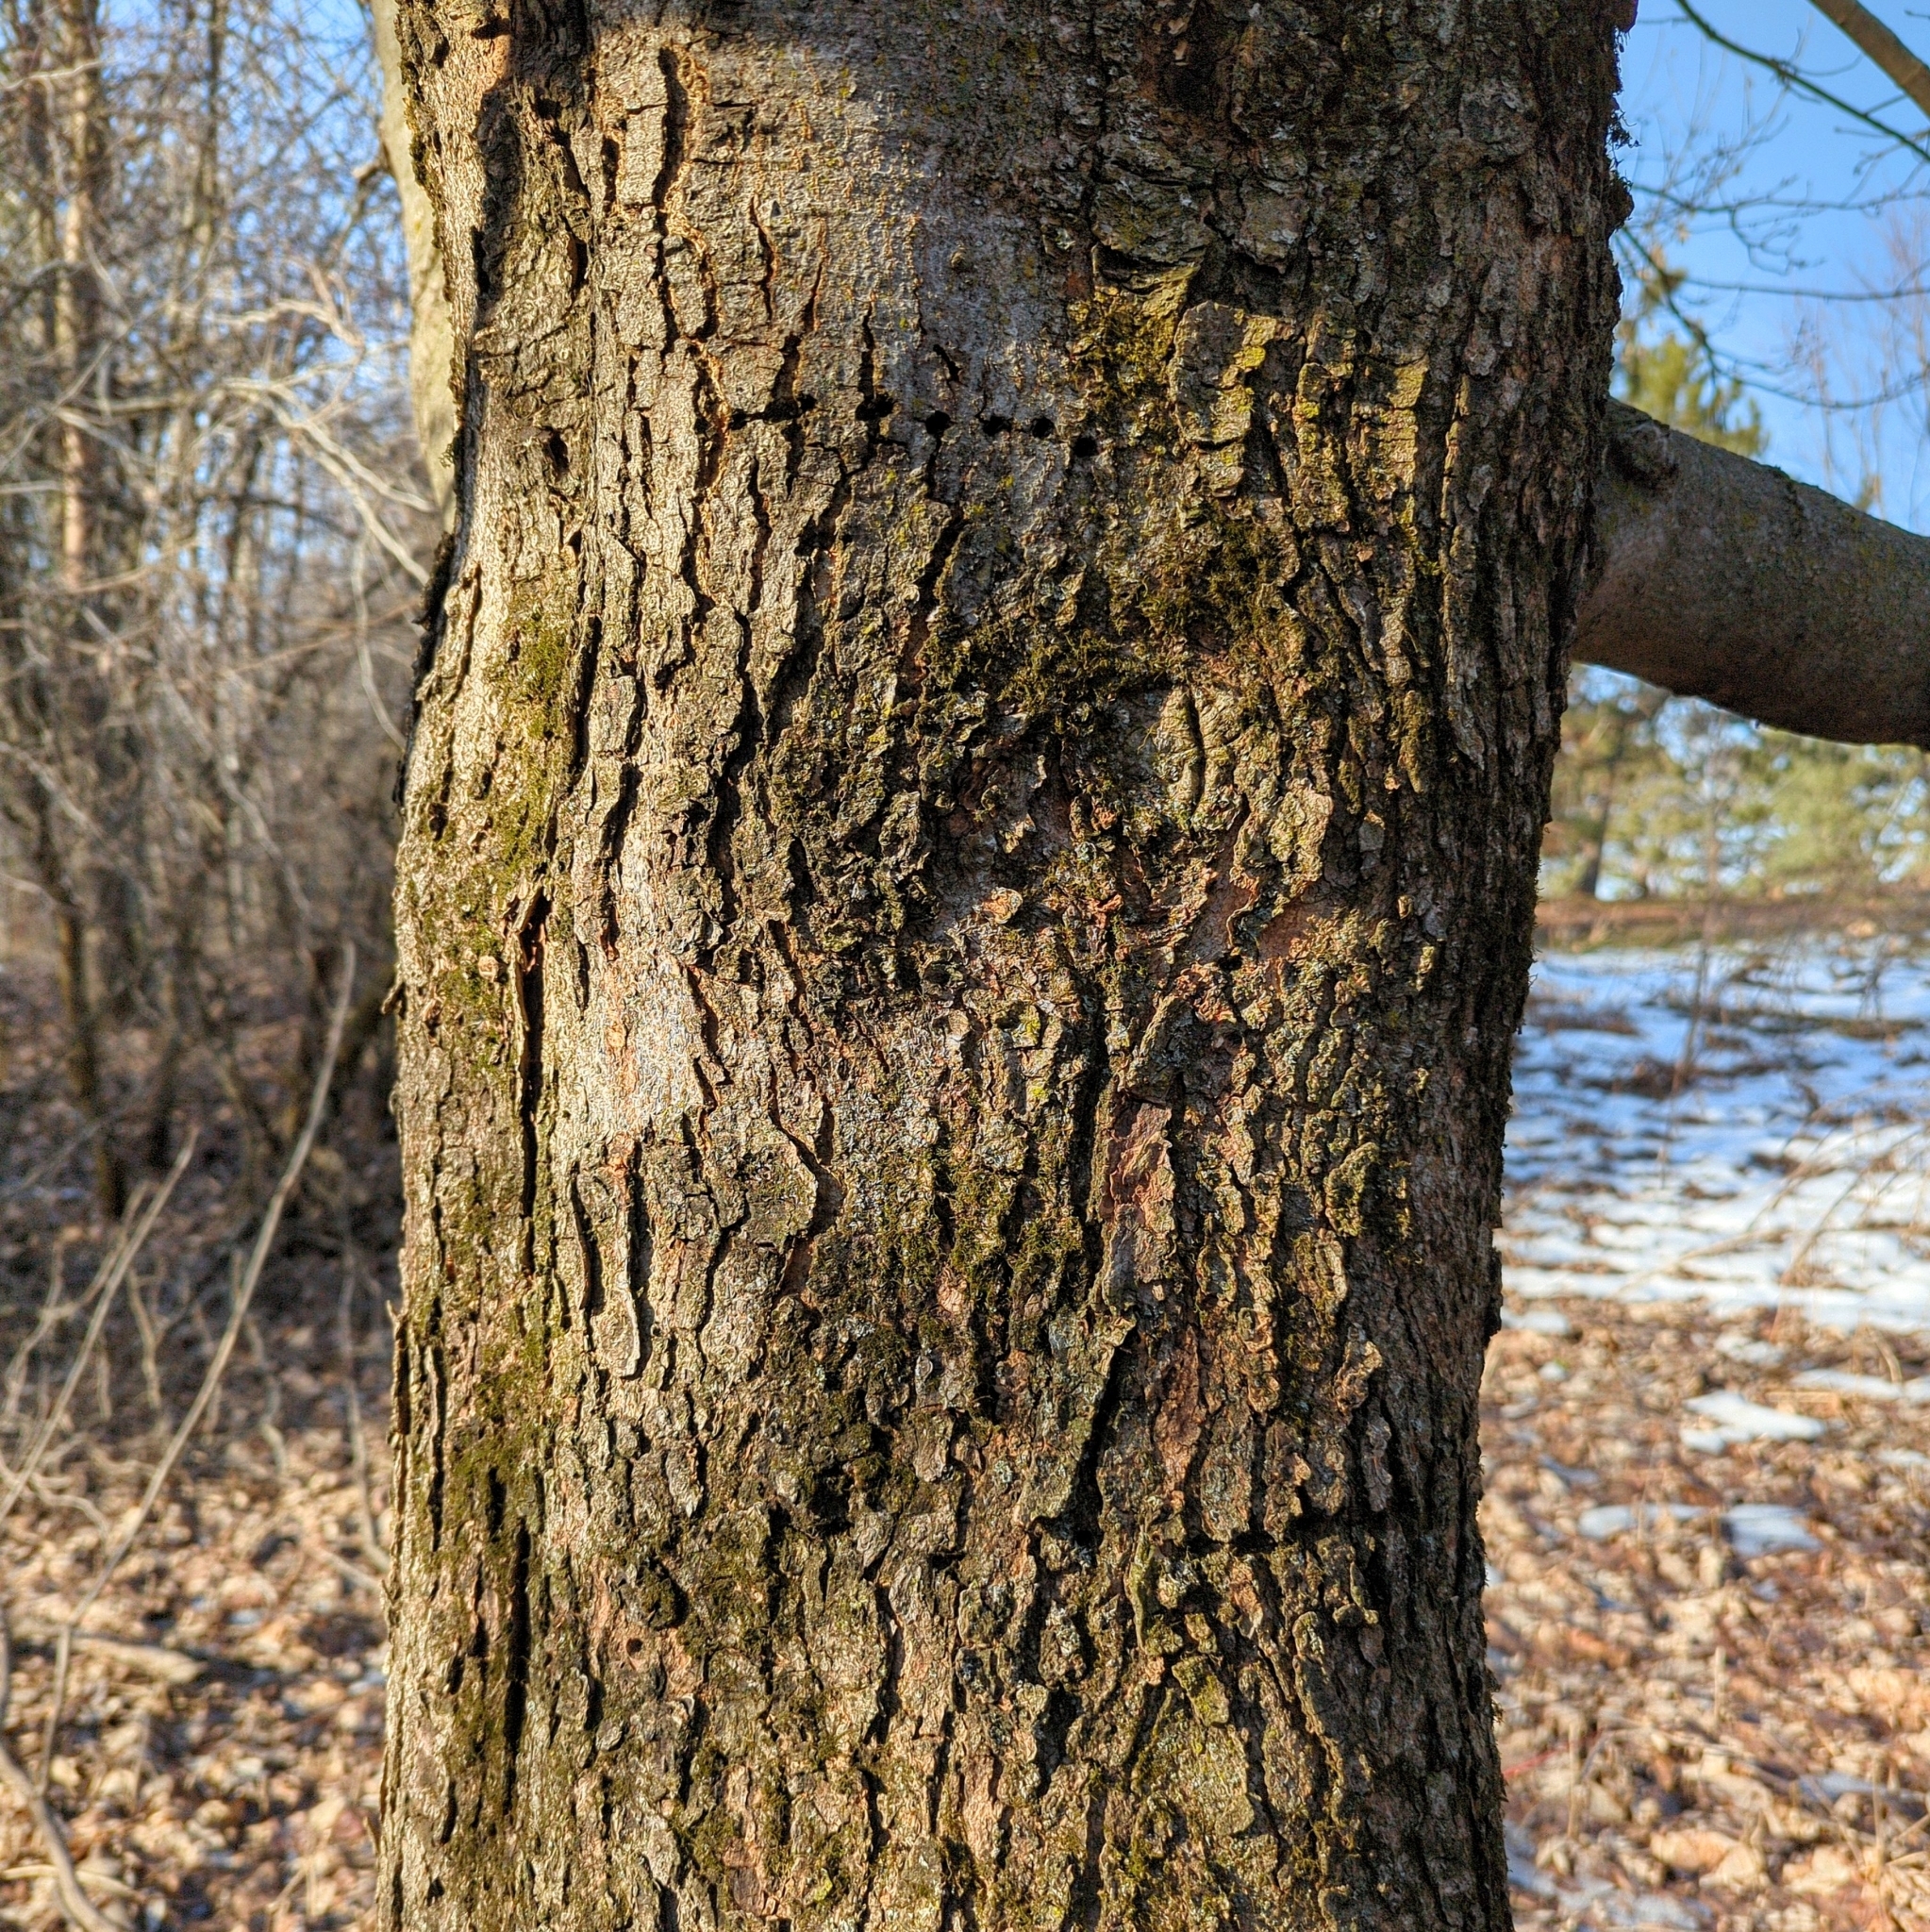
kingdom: Plantae
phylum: Tracheophyta
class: Magnoliopsida
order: Sapindales
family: Sapindaceae
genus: Acer
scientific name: Acer rubrum
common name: Red maple
